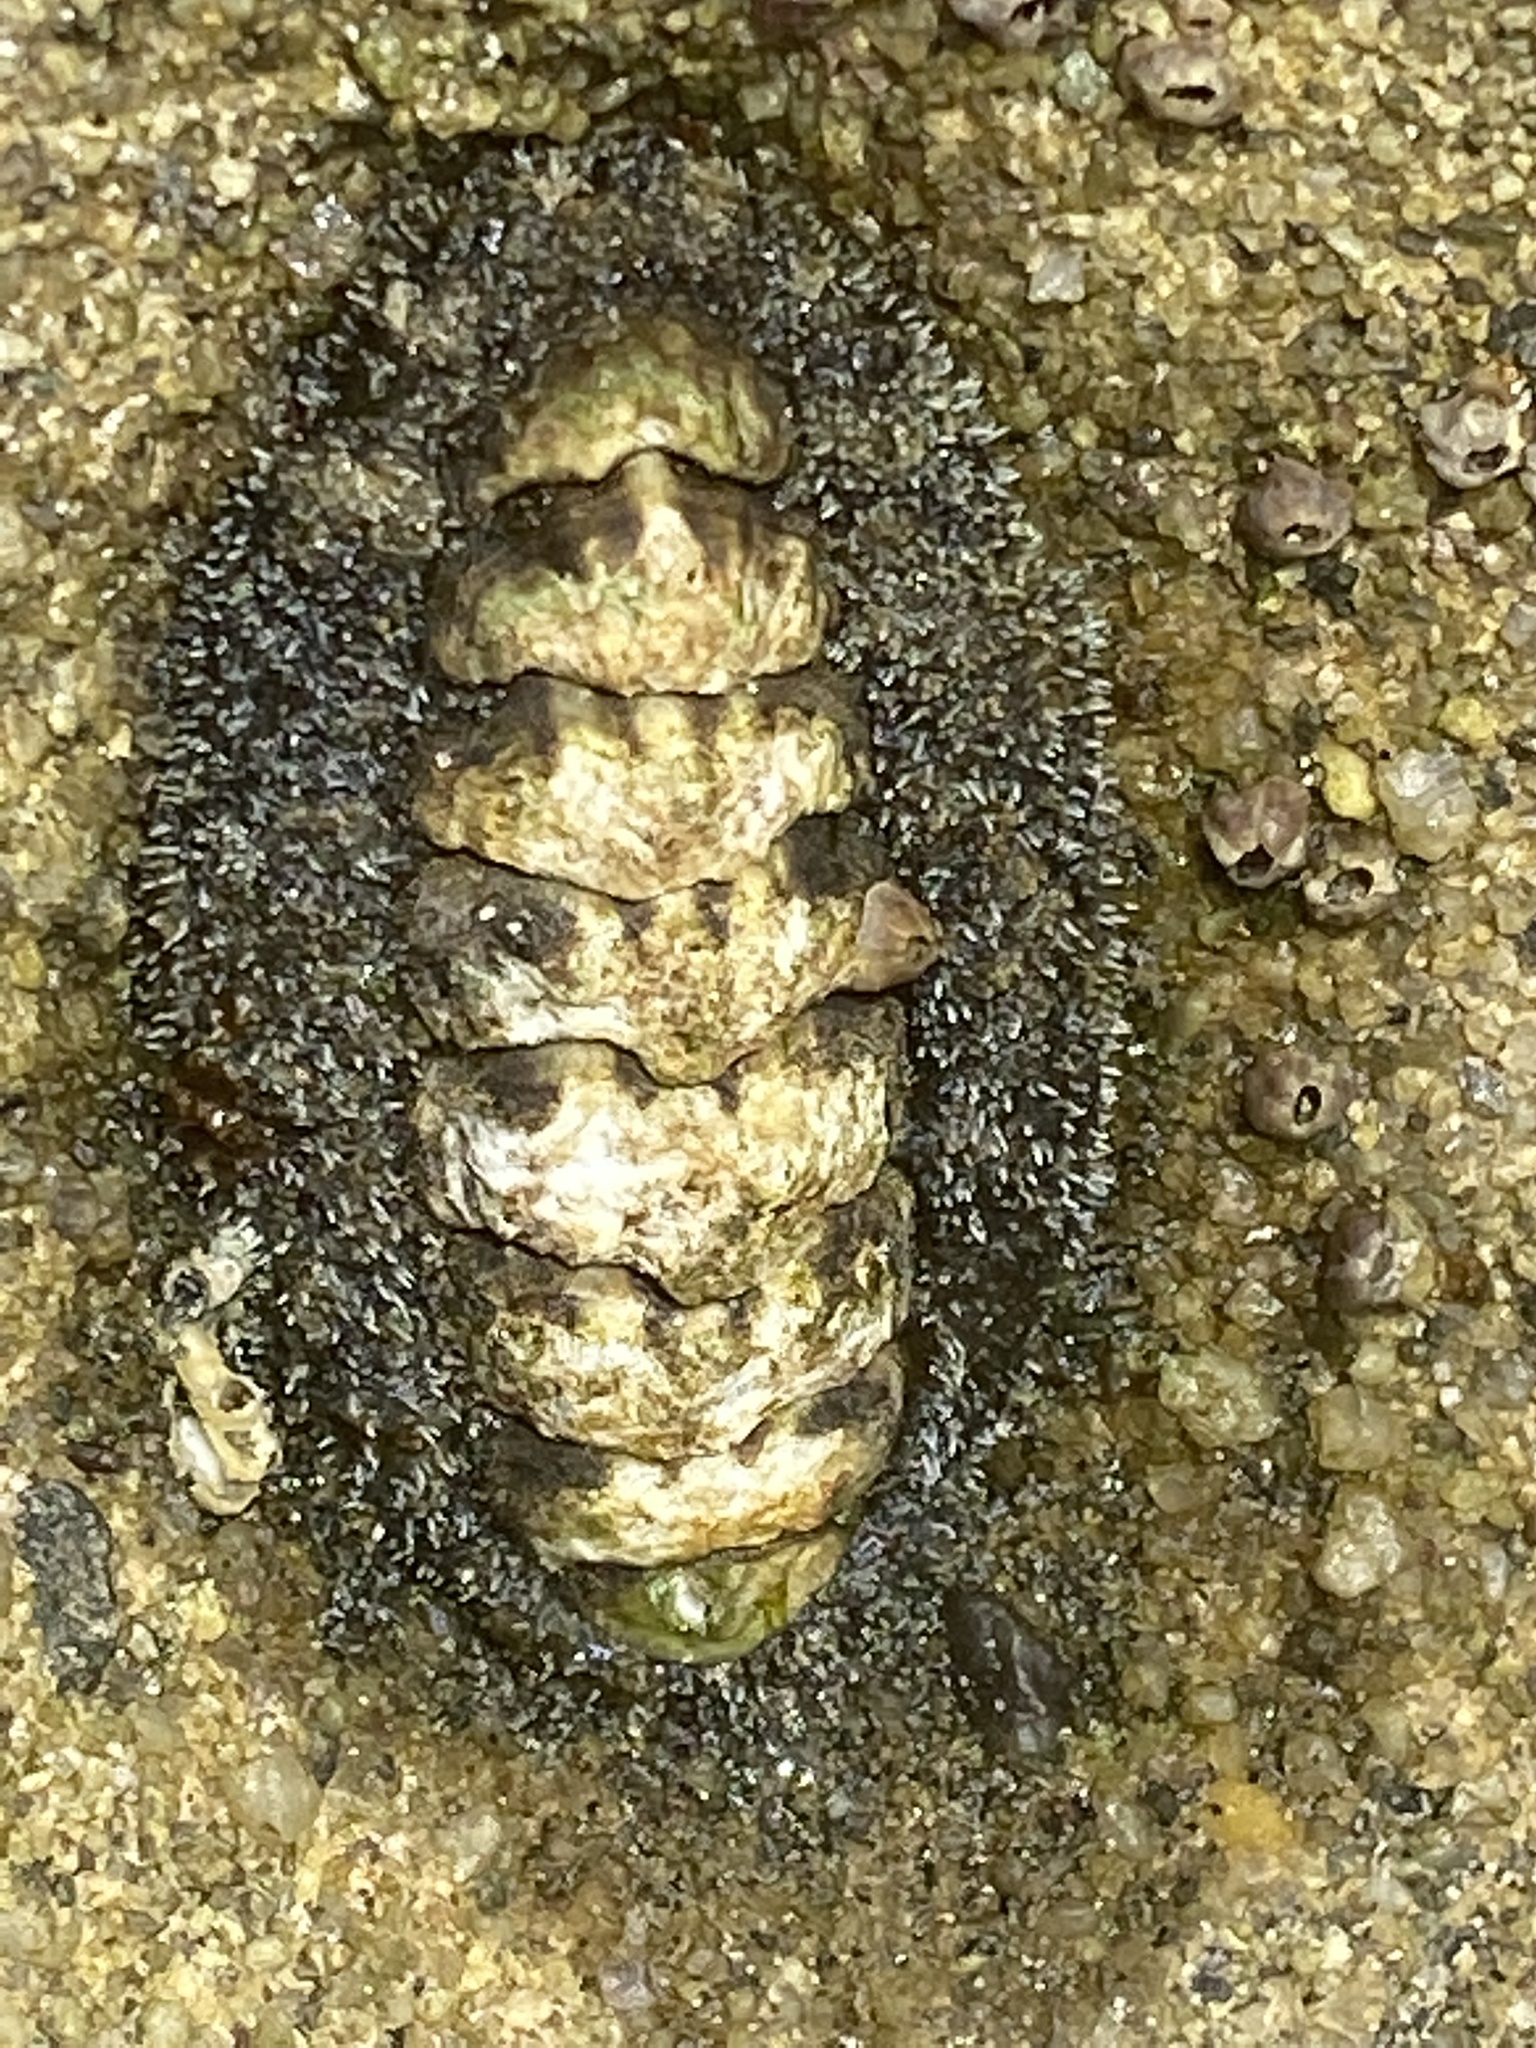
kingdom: Animalia
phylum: Mollusca
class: Polyplacophora
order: Chitonida
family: Tonicellidae
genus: Nuttallina
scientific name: Nuttallina californica
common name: California nuttall chiton
